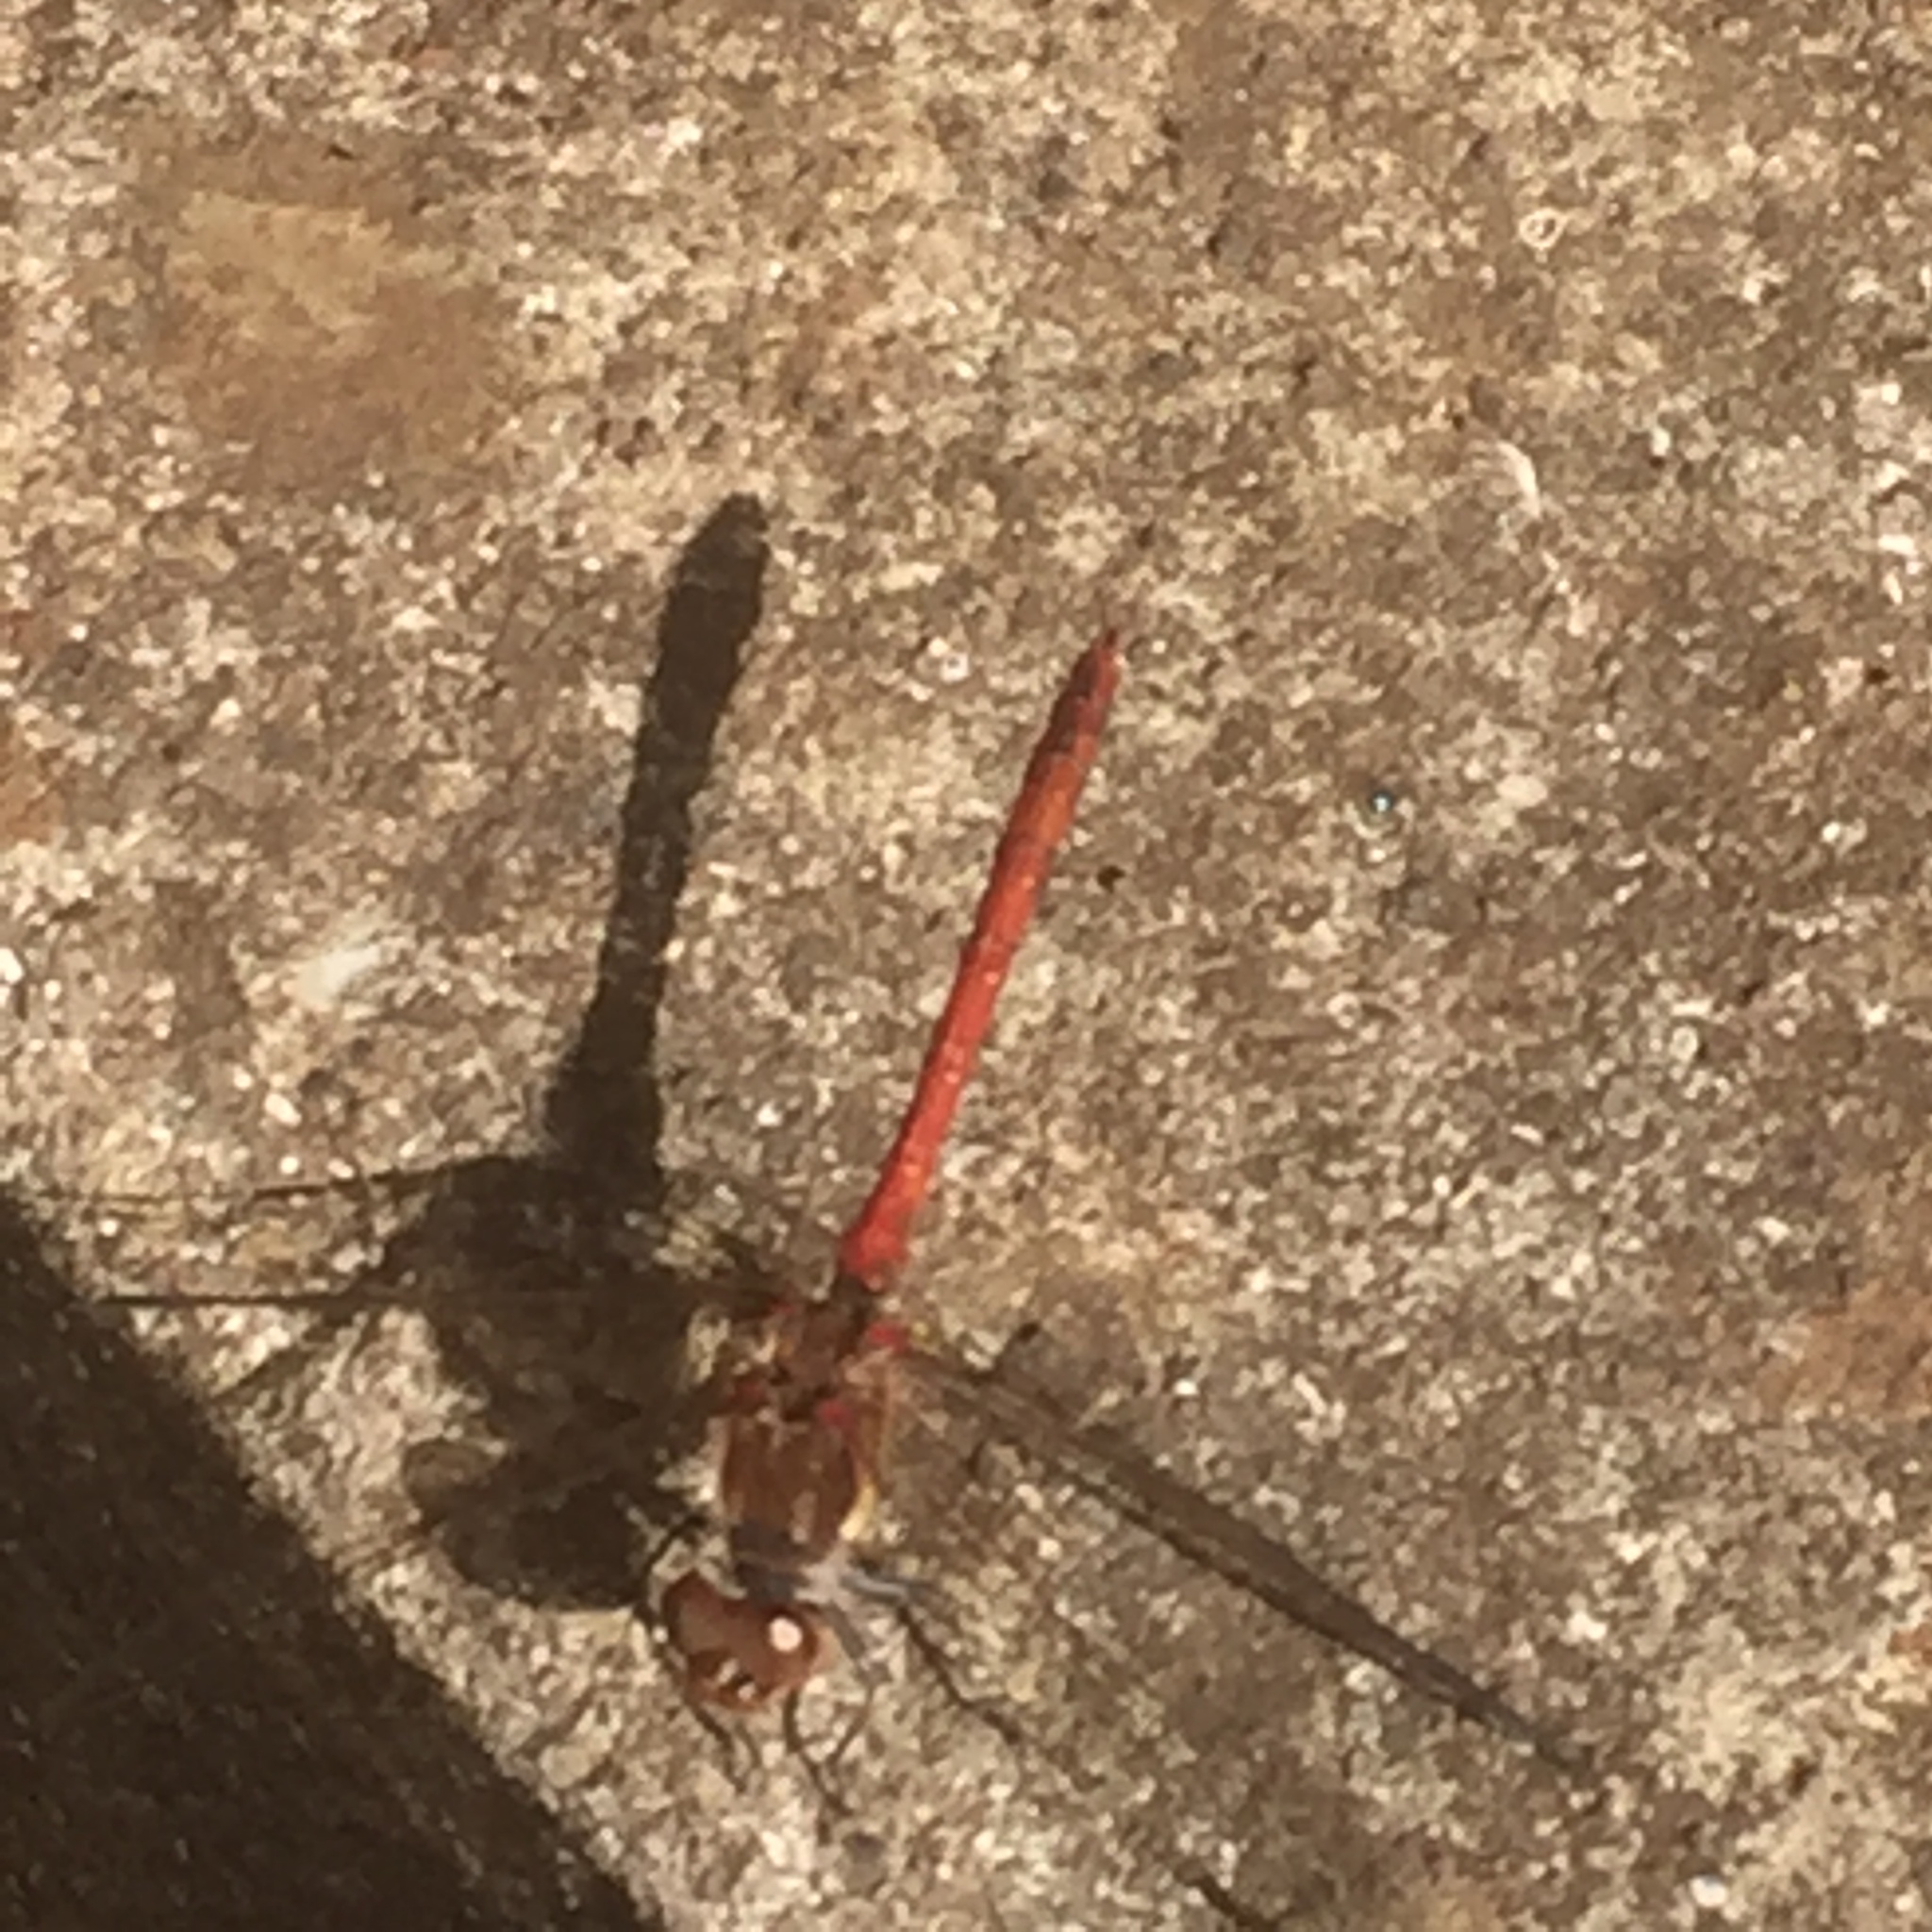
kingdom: Animalia
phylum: Arthropoda
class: Insecta
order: Odonata
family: Libellulidae
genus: Sympetrum
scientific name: Sympetrum nigrifemur
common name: Island darter
